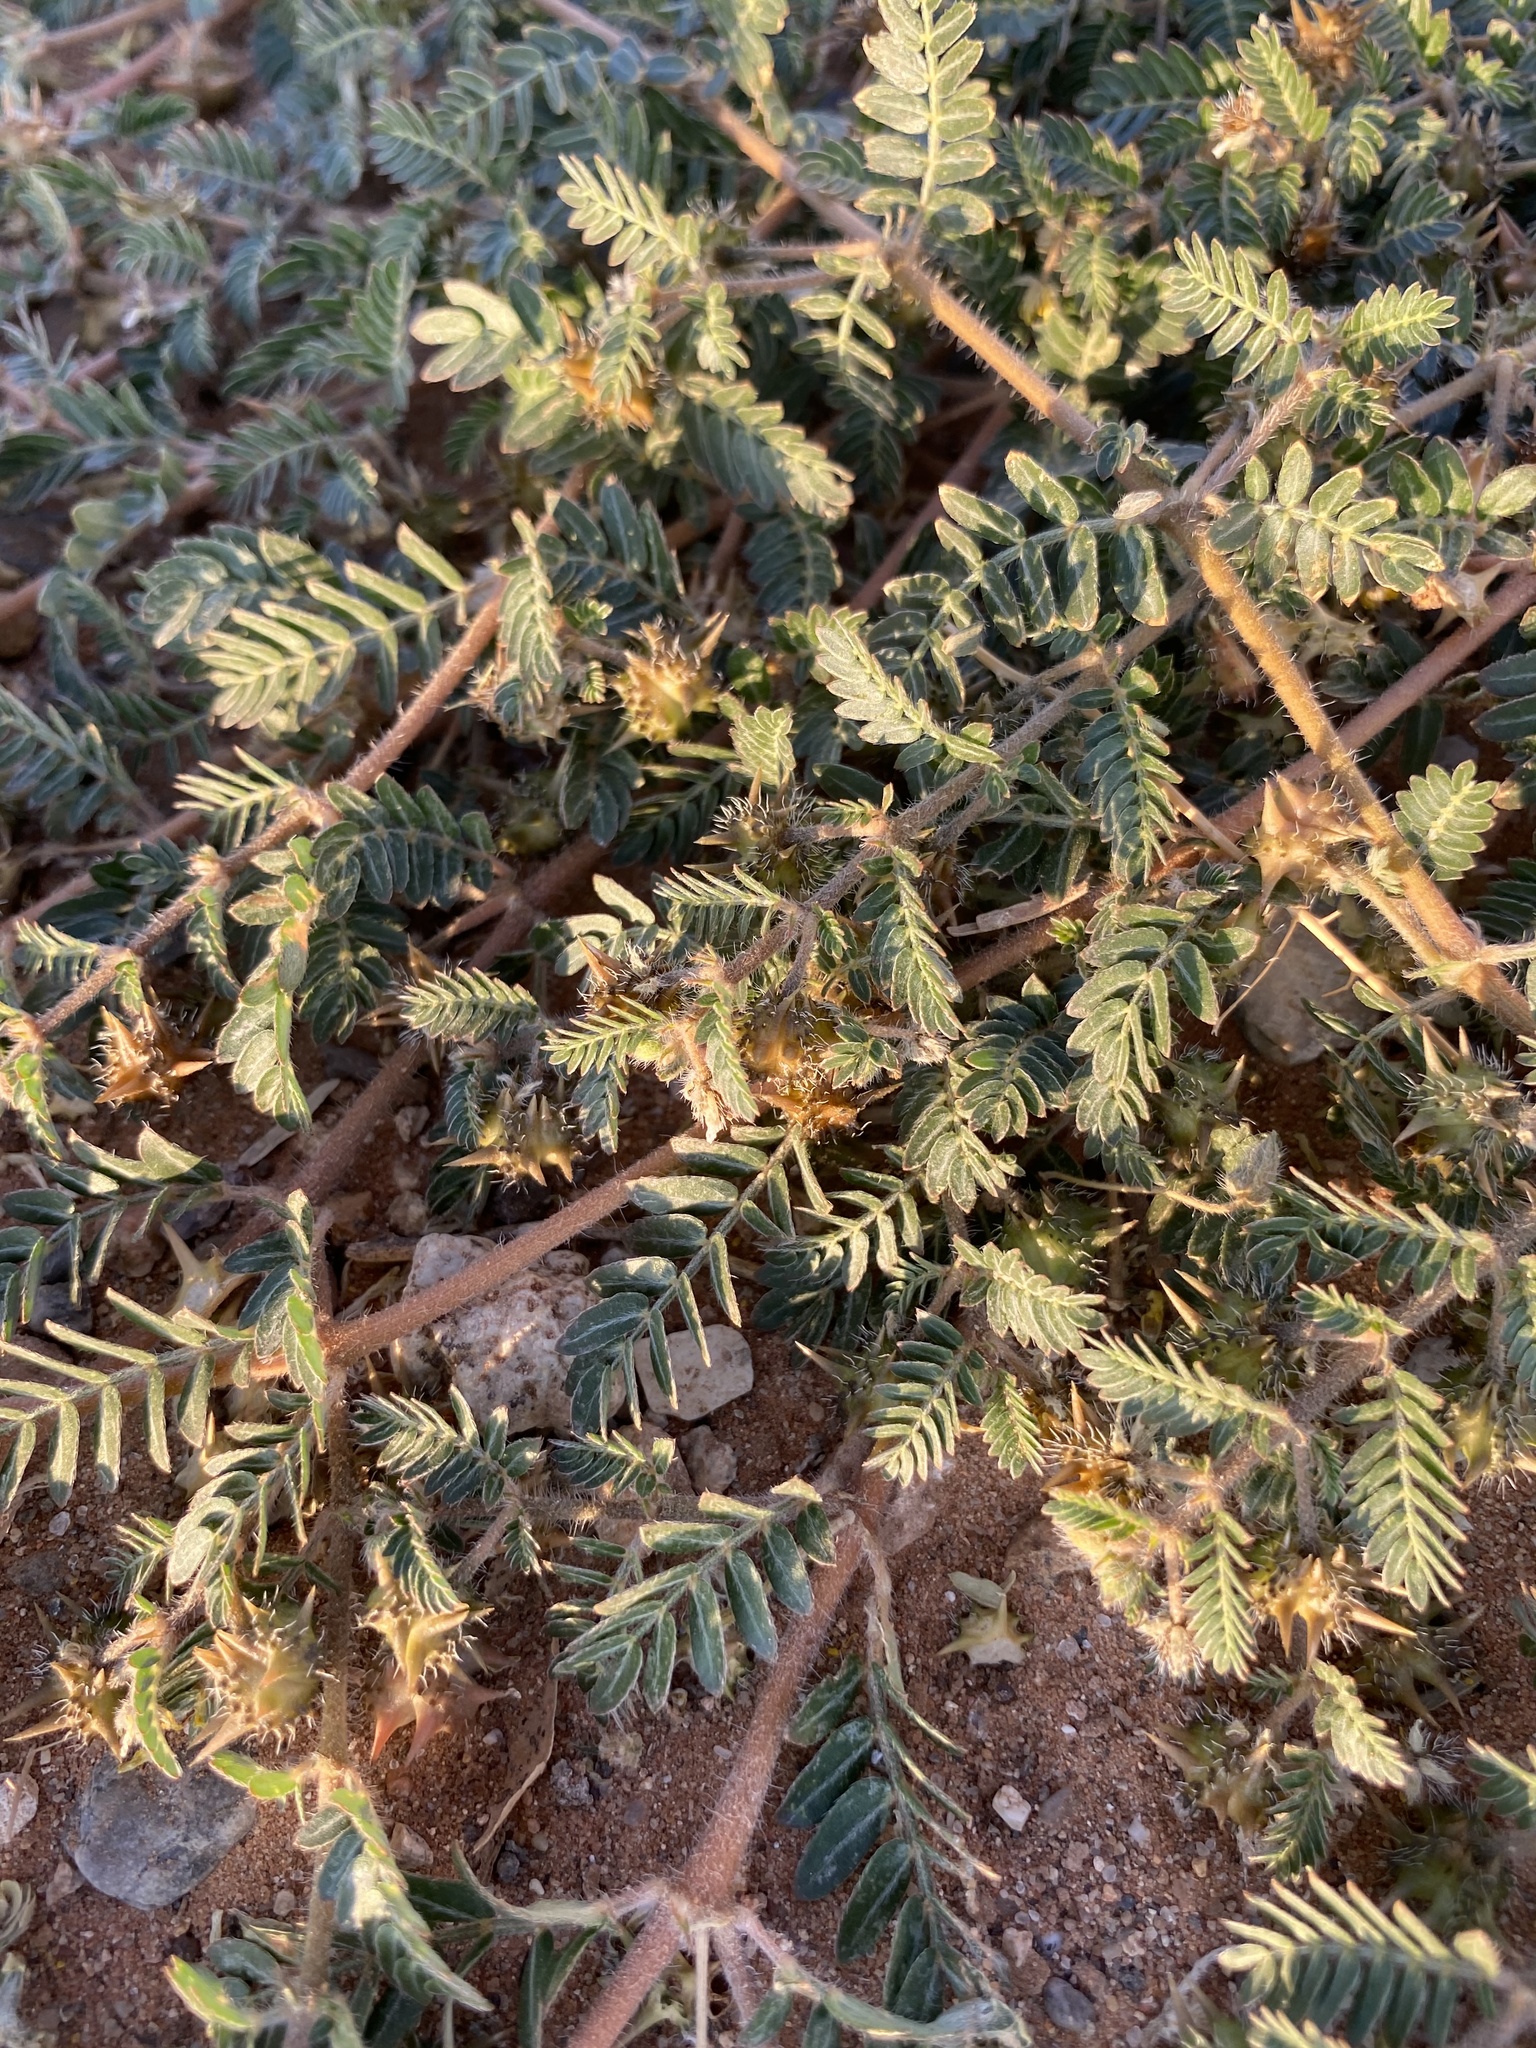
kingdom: Plantae
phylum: Tracheophyta
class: Magnoliopsida
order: Zygophyllales
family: Zygophyllaceae
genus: Tribulus
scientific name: Tribulus terrestris
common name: Puncturevine
